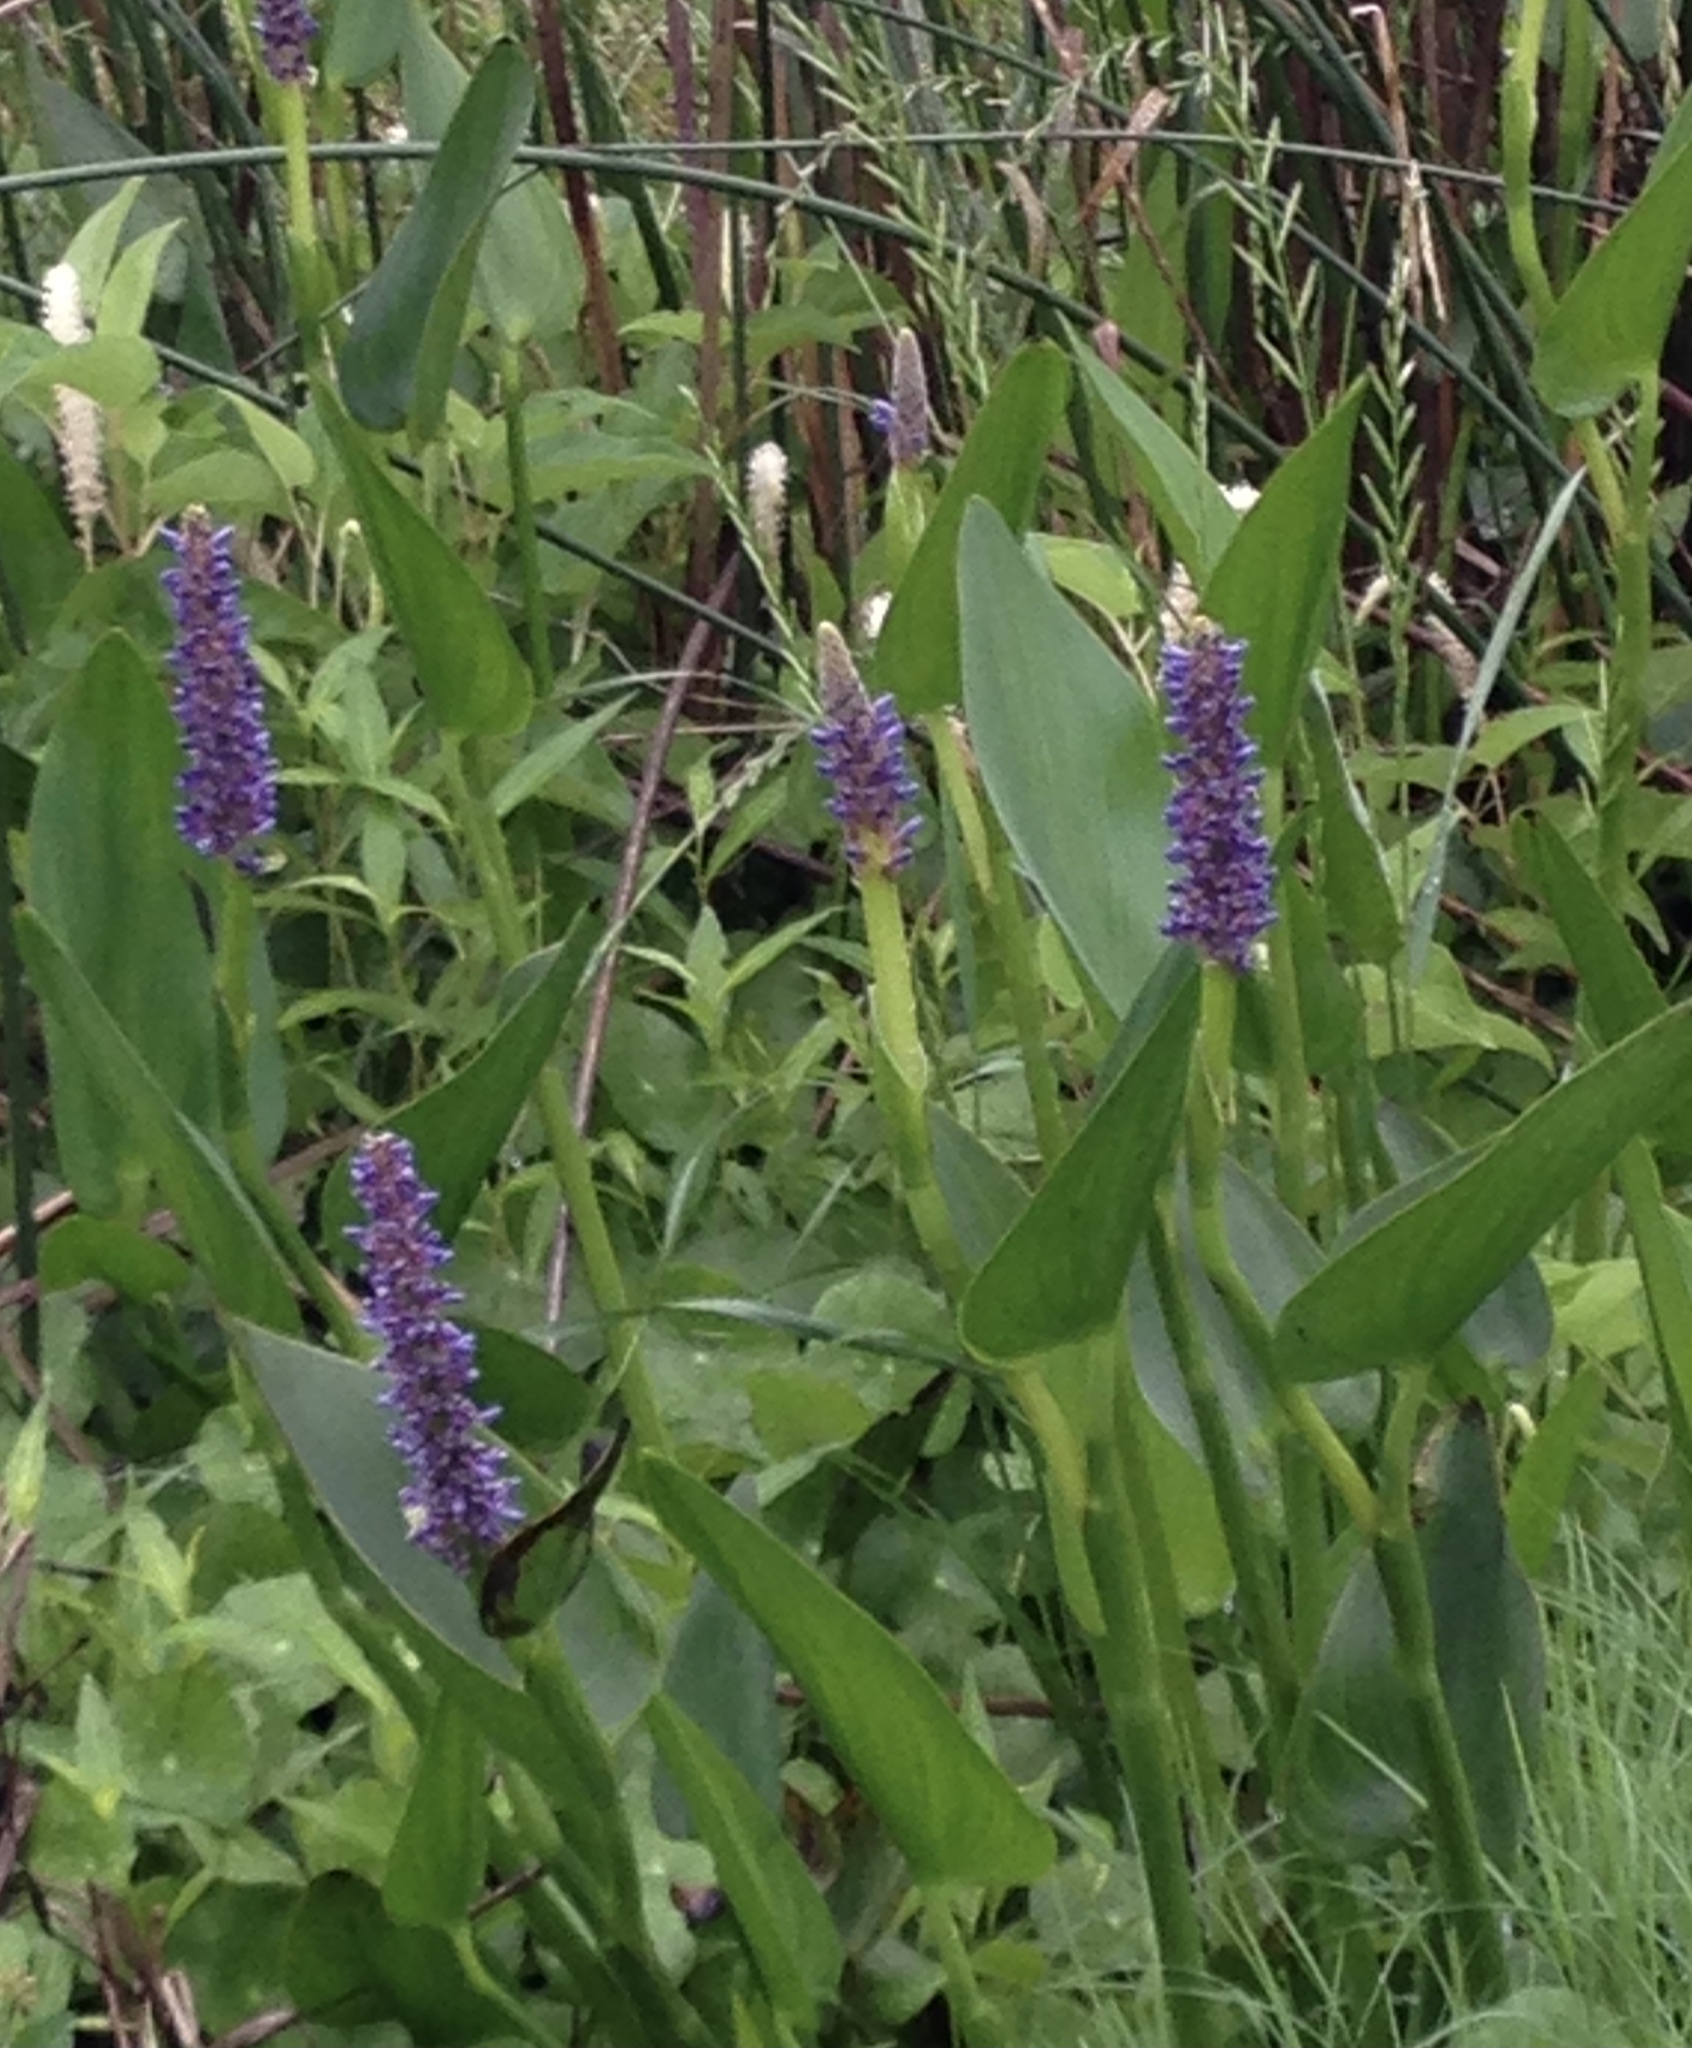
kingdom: Plantae
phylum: Tracheophyta
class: Liliopsida
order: Commelinales
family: Pontederiaceae
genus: Pontederia
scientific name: Pontederia cordata
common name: Pickerelweed
